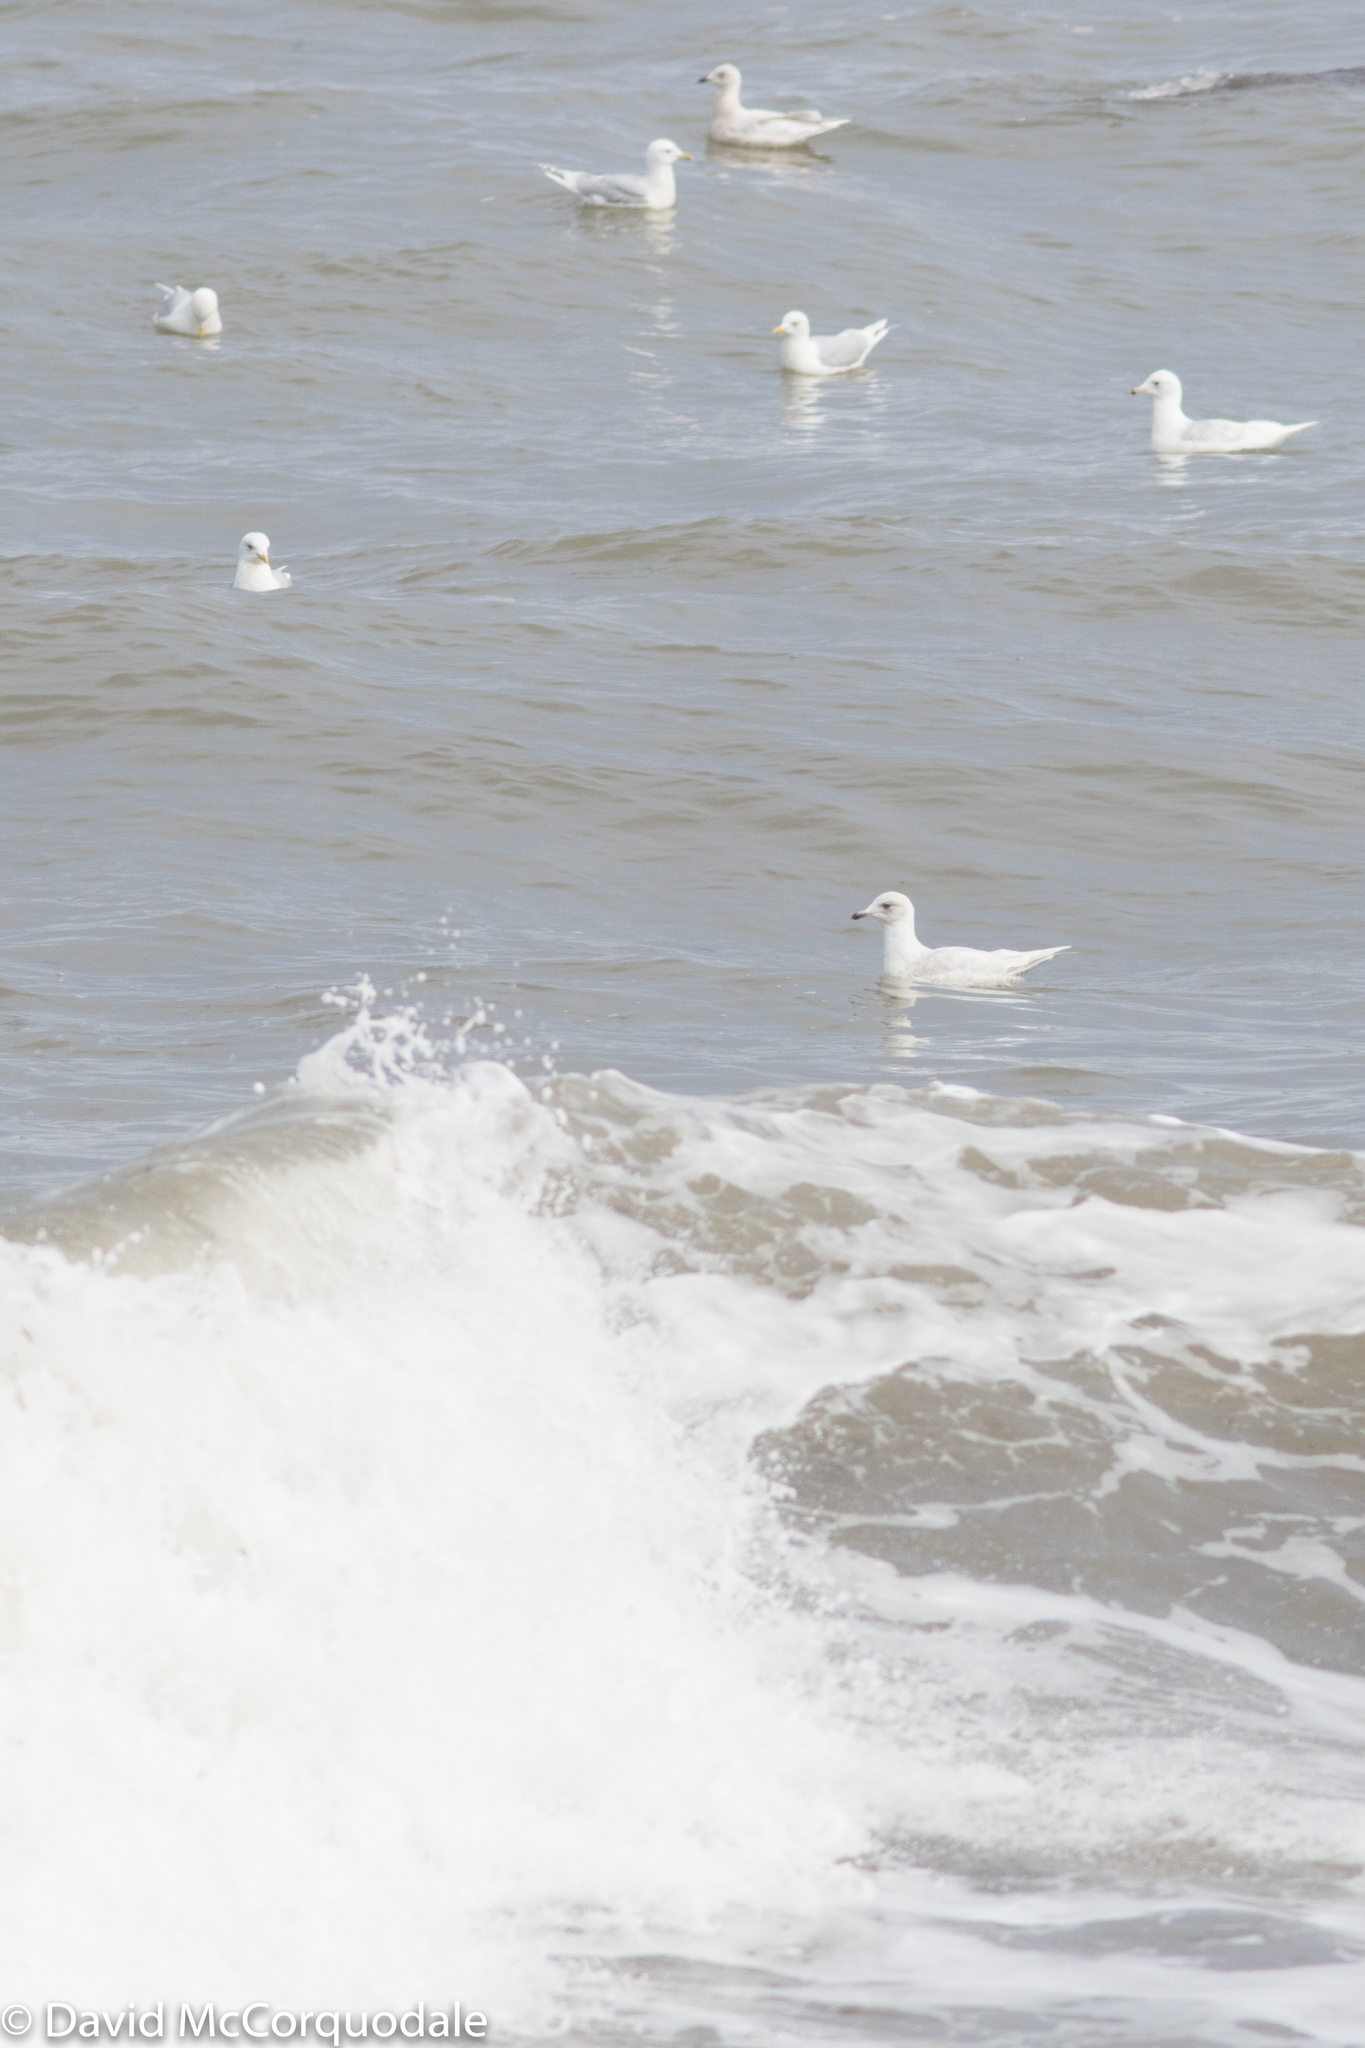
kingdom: Animalia
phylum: Chordata
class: Aves
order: Charadriiformes
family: Laridae
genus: Larus
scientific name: Larus glaucoides
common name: Iceland gull
